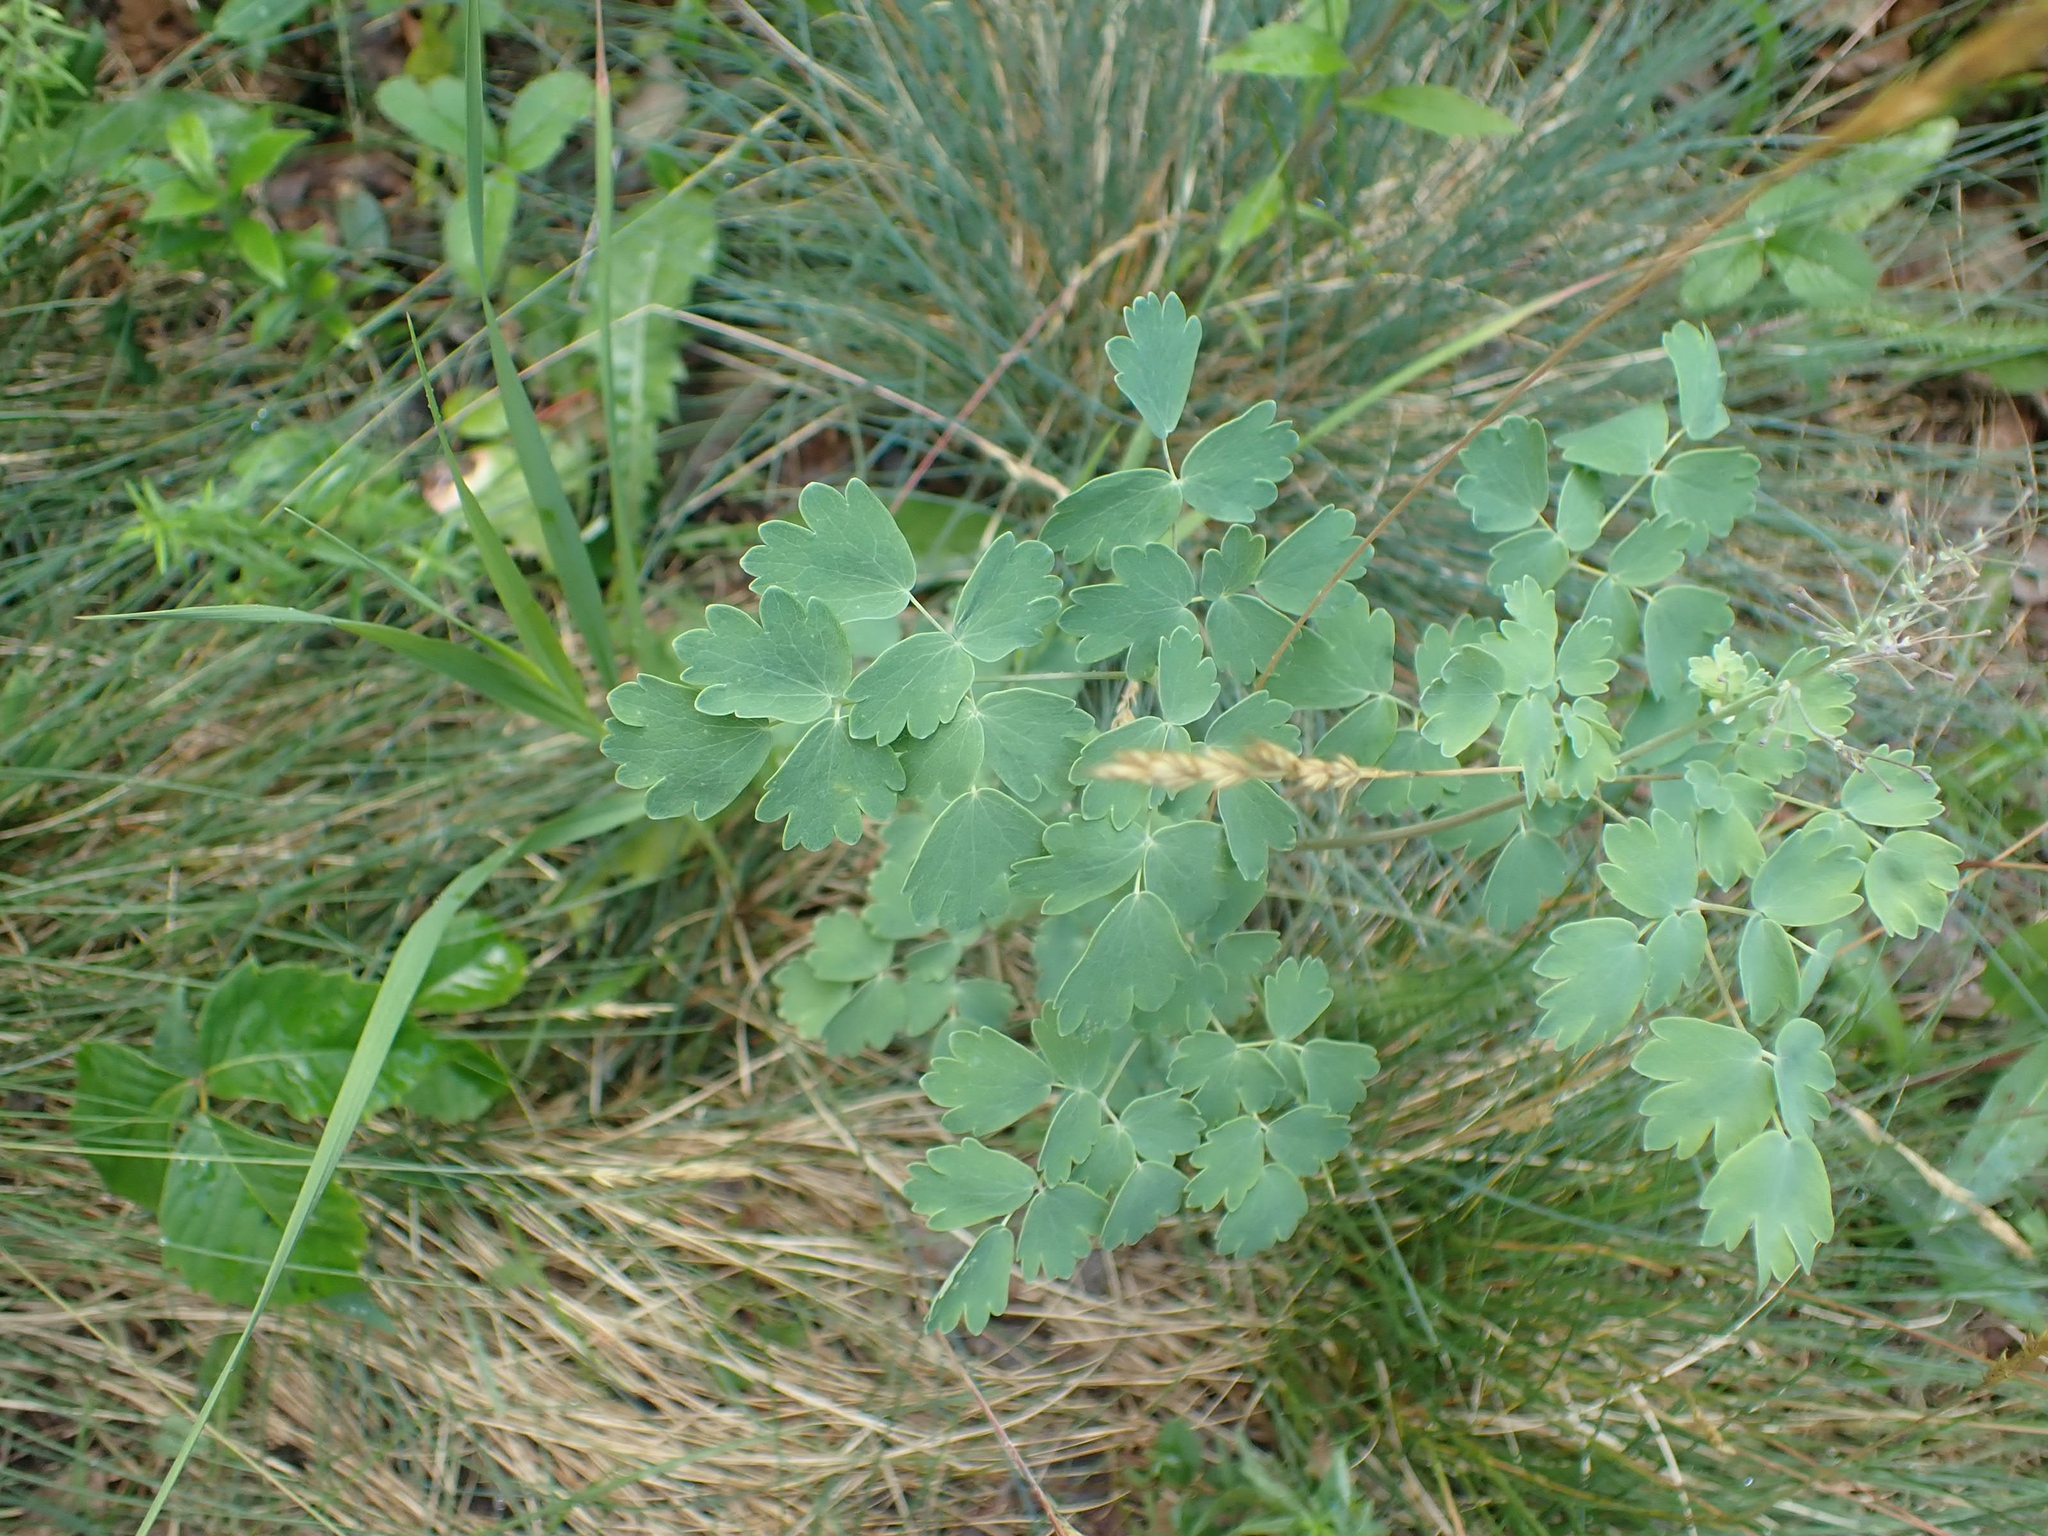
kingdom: Plantae
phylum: Tracheophyta
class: Magnoliopsida
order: Ranunculales
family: Ranunculaceae
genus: Thalictrum
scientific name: Thalictrum venulosum
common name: Early meadow-rue
